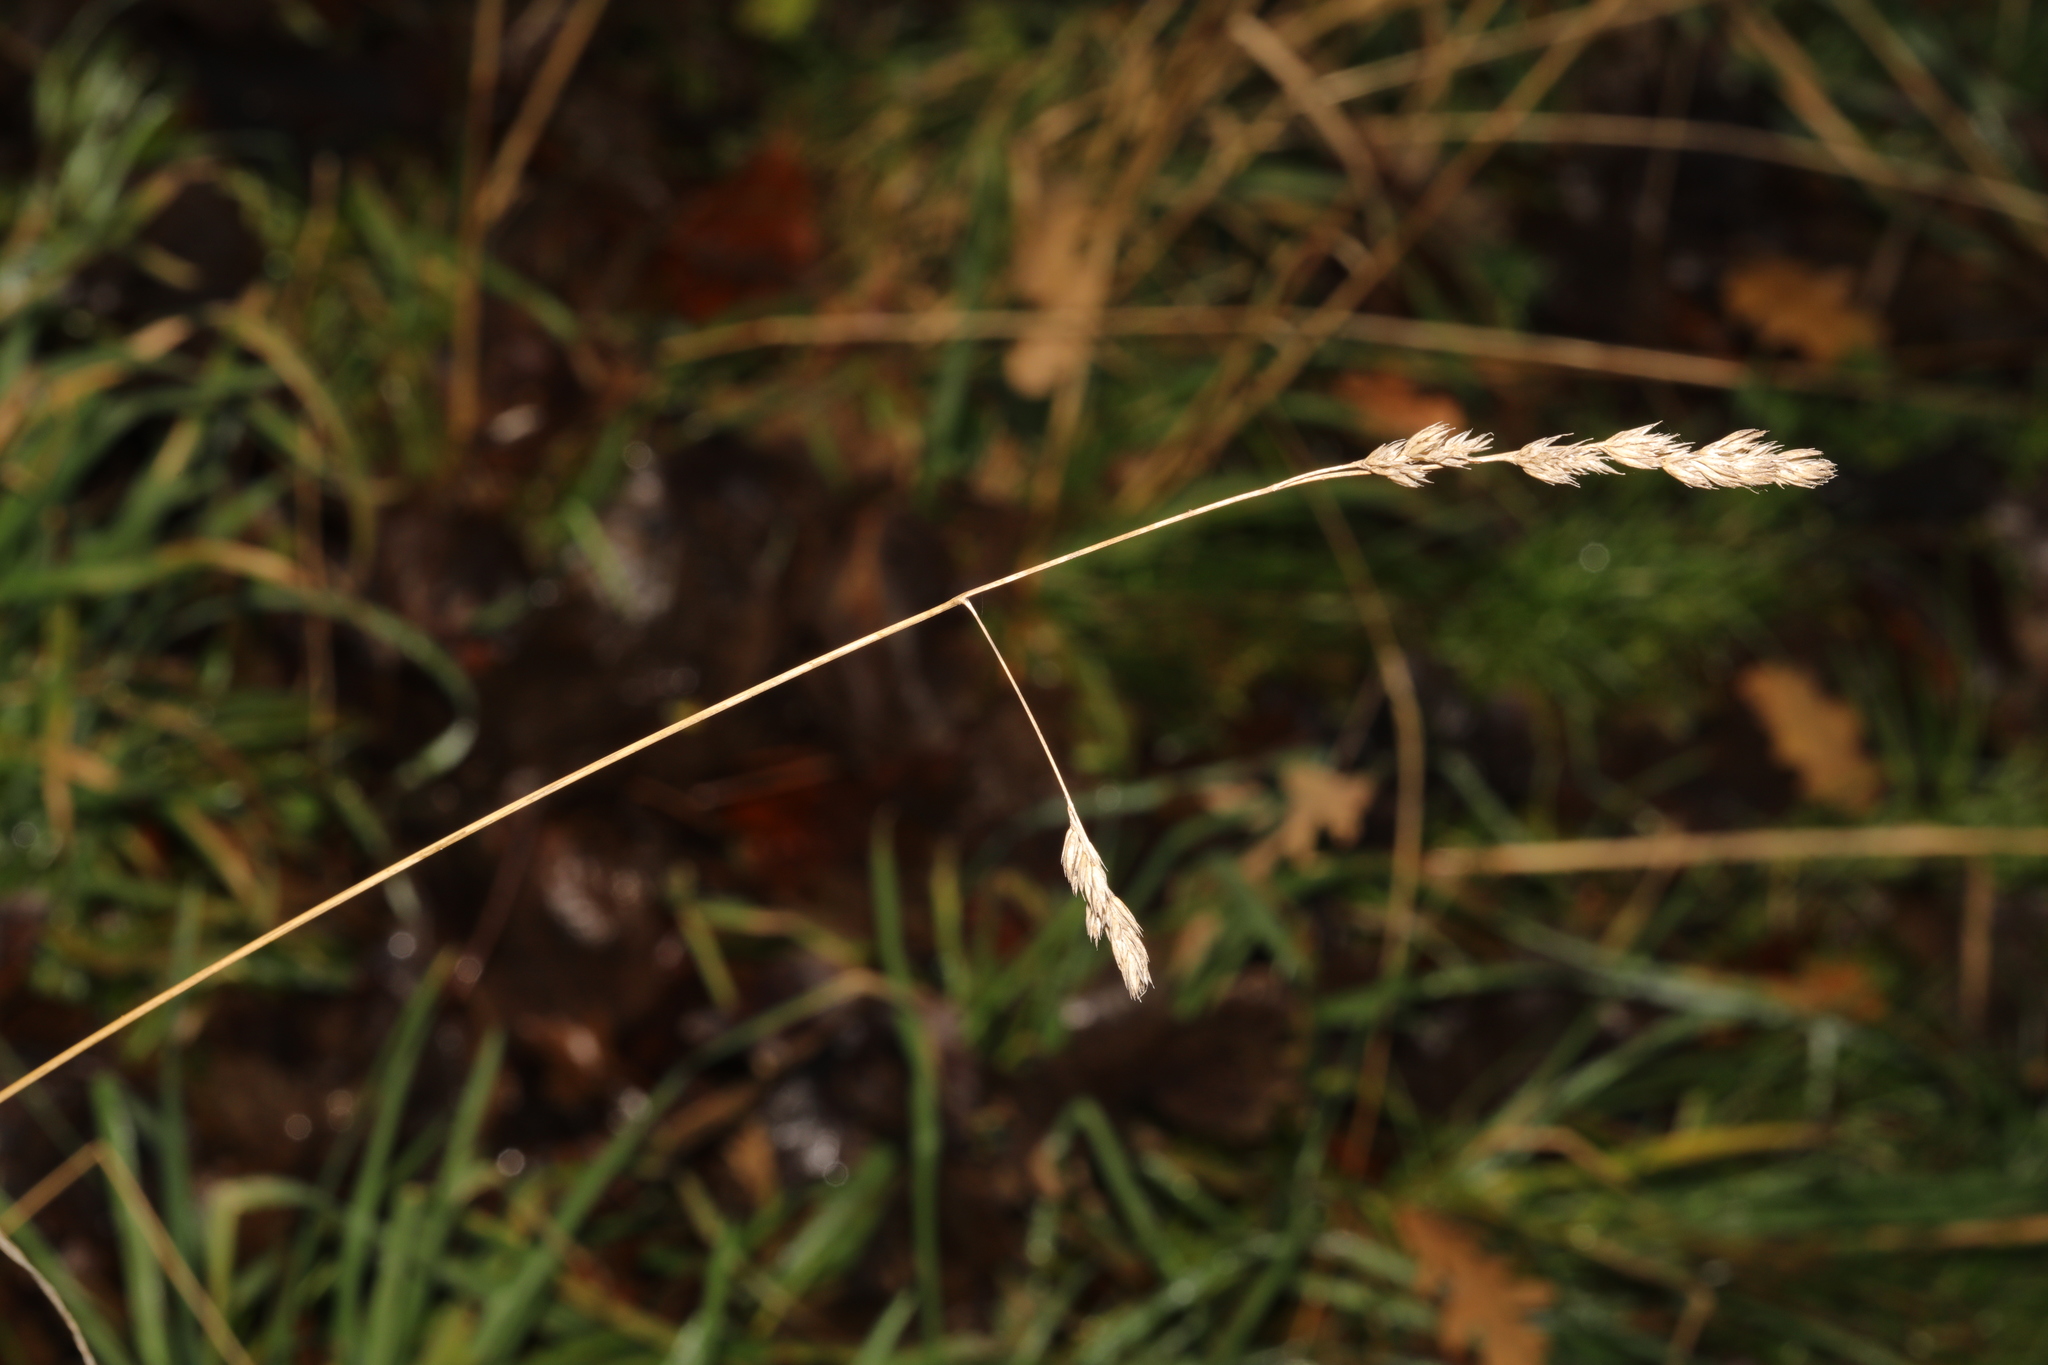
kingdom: Plantae
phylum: Tracheophyta
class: Liliopsida
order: Poales
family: Poaceae
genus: Dactylis
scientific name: Dactylis glomerata
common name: Orchardgrass
